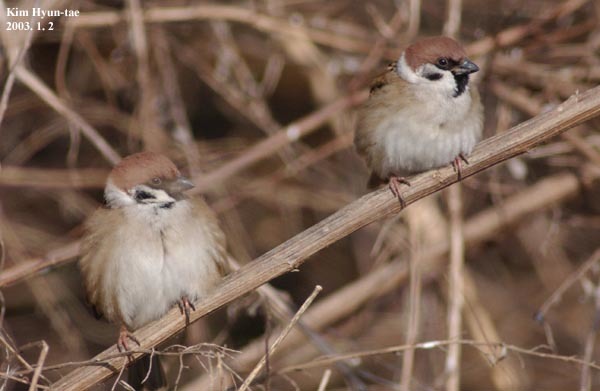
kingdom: Animalia
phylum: Chordata
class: Aves
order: Passeriformes
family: Passeridae
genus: Passer
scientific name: Passer montanus
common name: Eurasian tree sparrow
